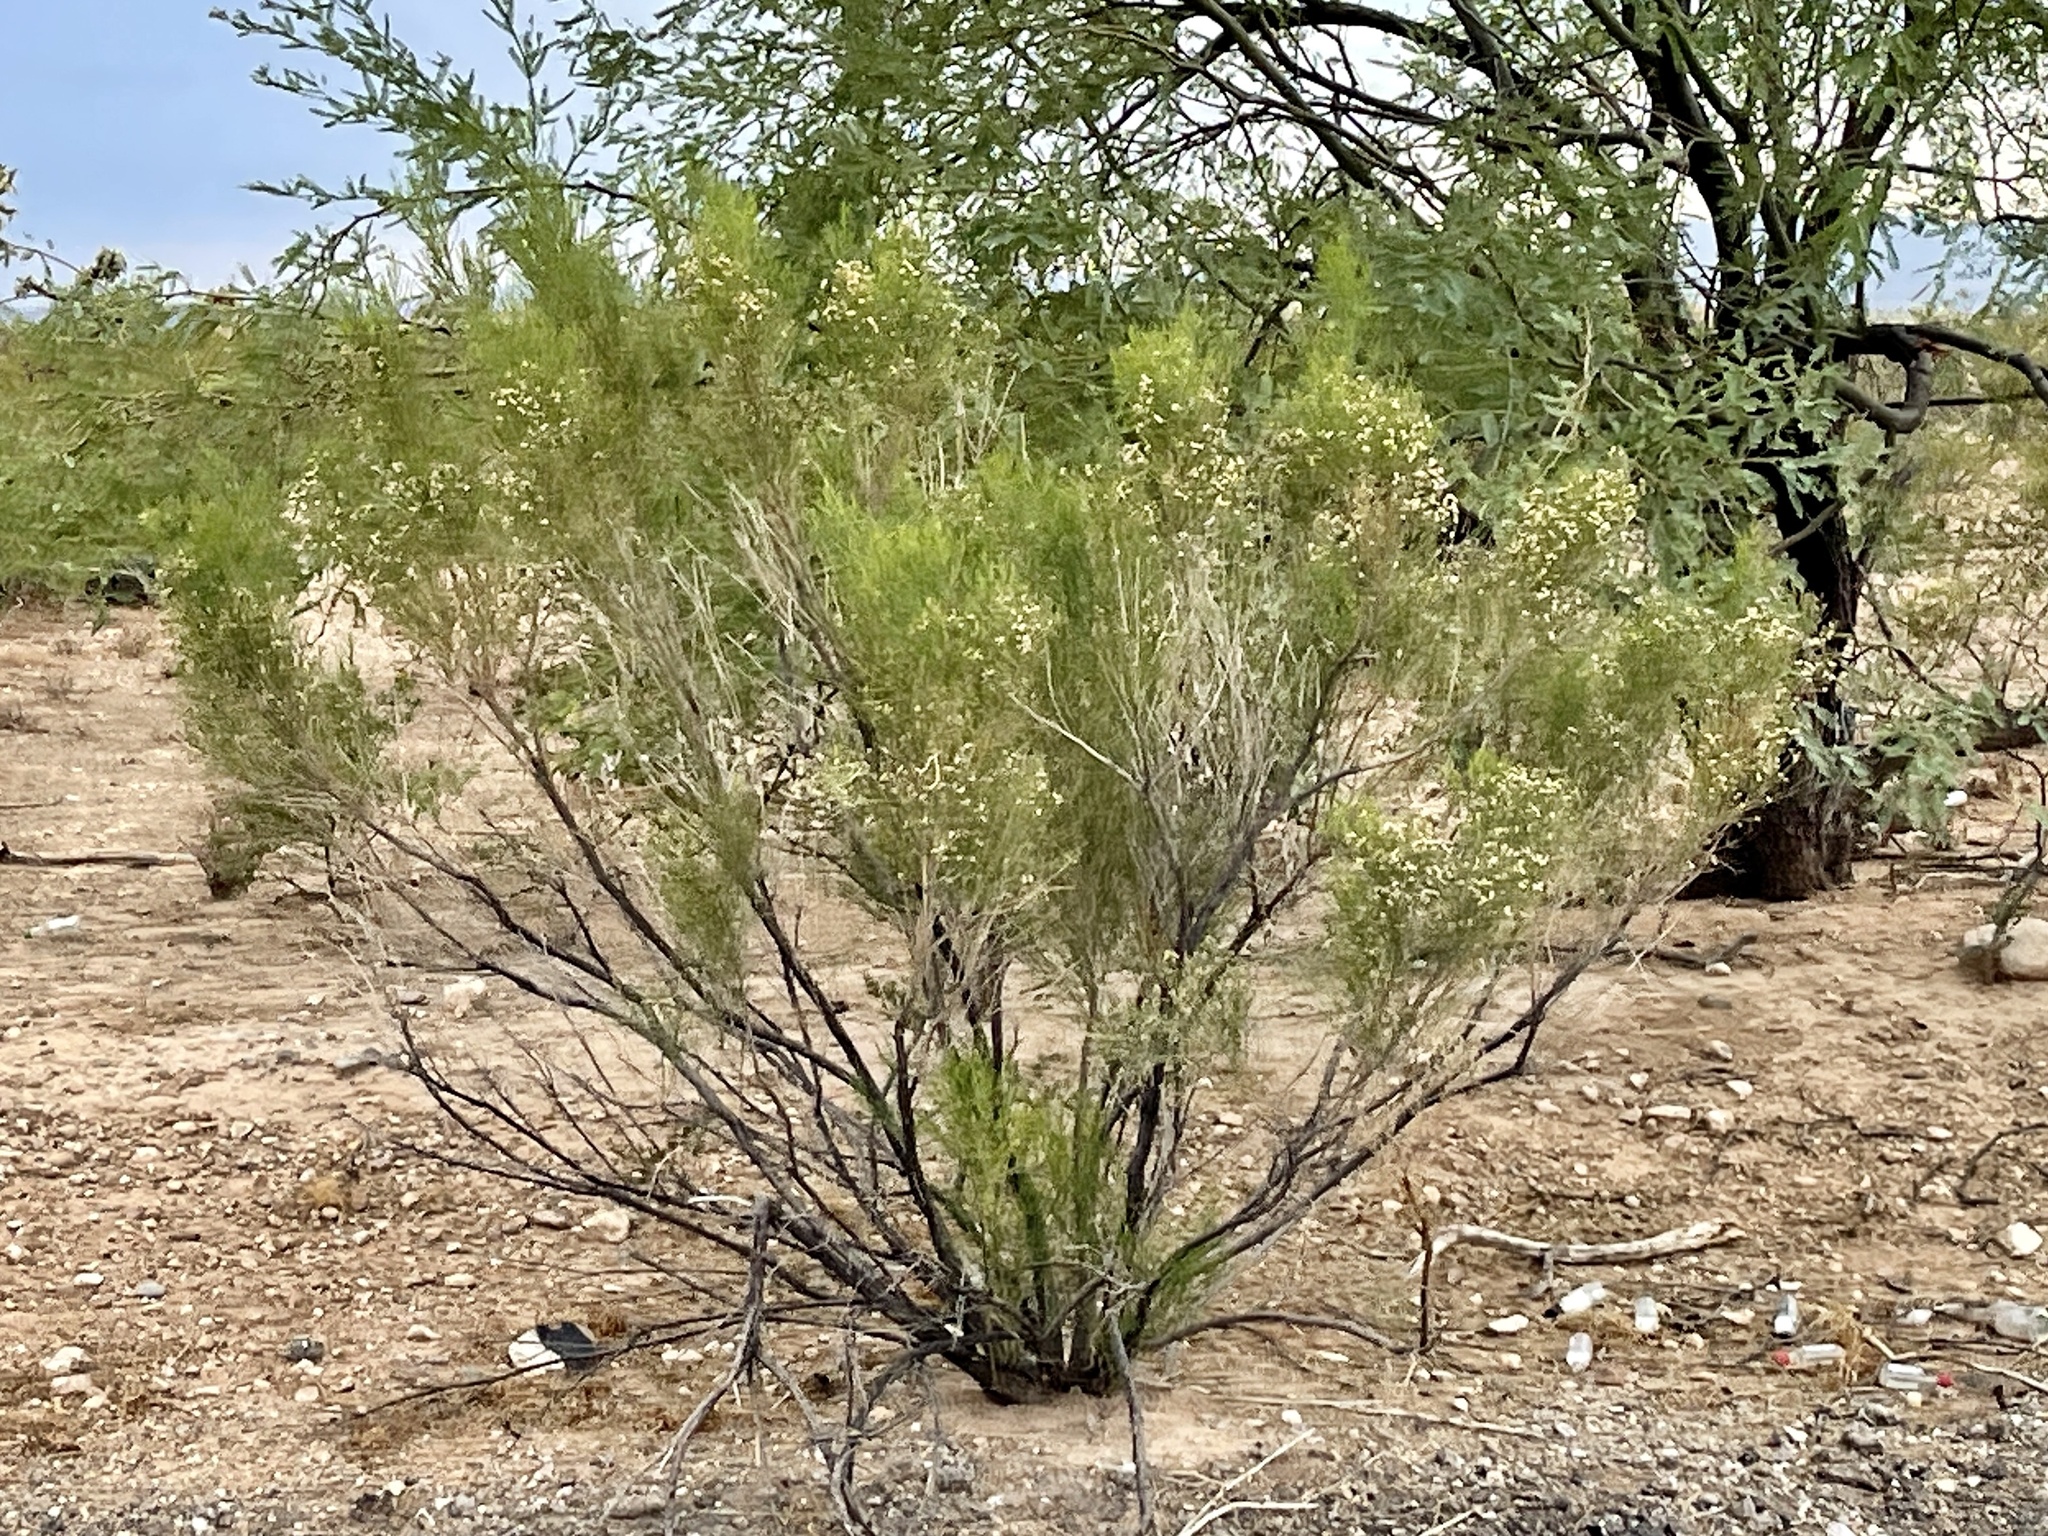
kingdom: Plantae
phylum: Tracheophyta
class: Magnoliopsida
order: Asterales
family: Asteraceae
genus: Baccharis
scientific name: Baccharis sarothroides
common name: Desert-broom
